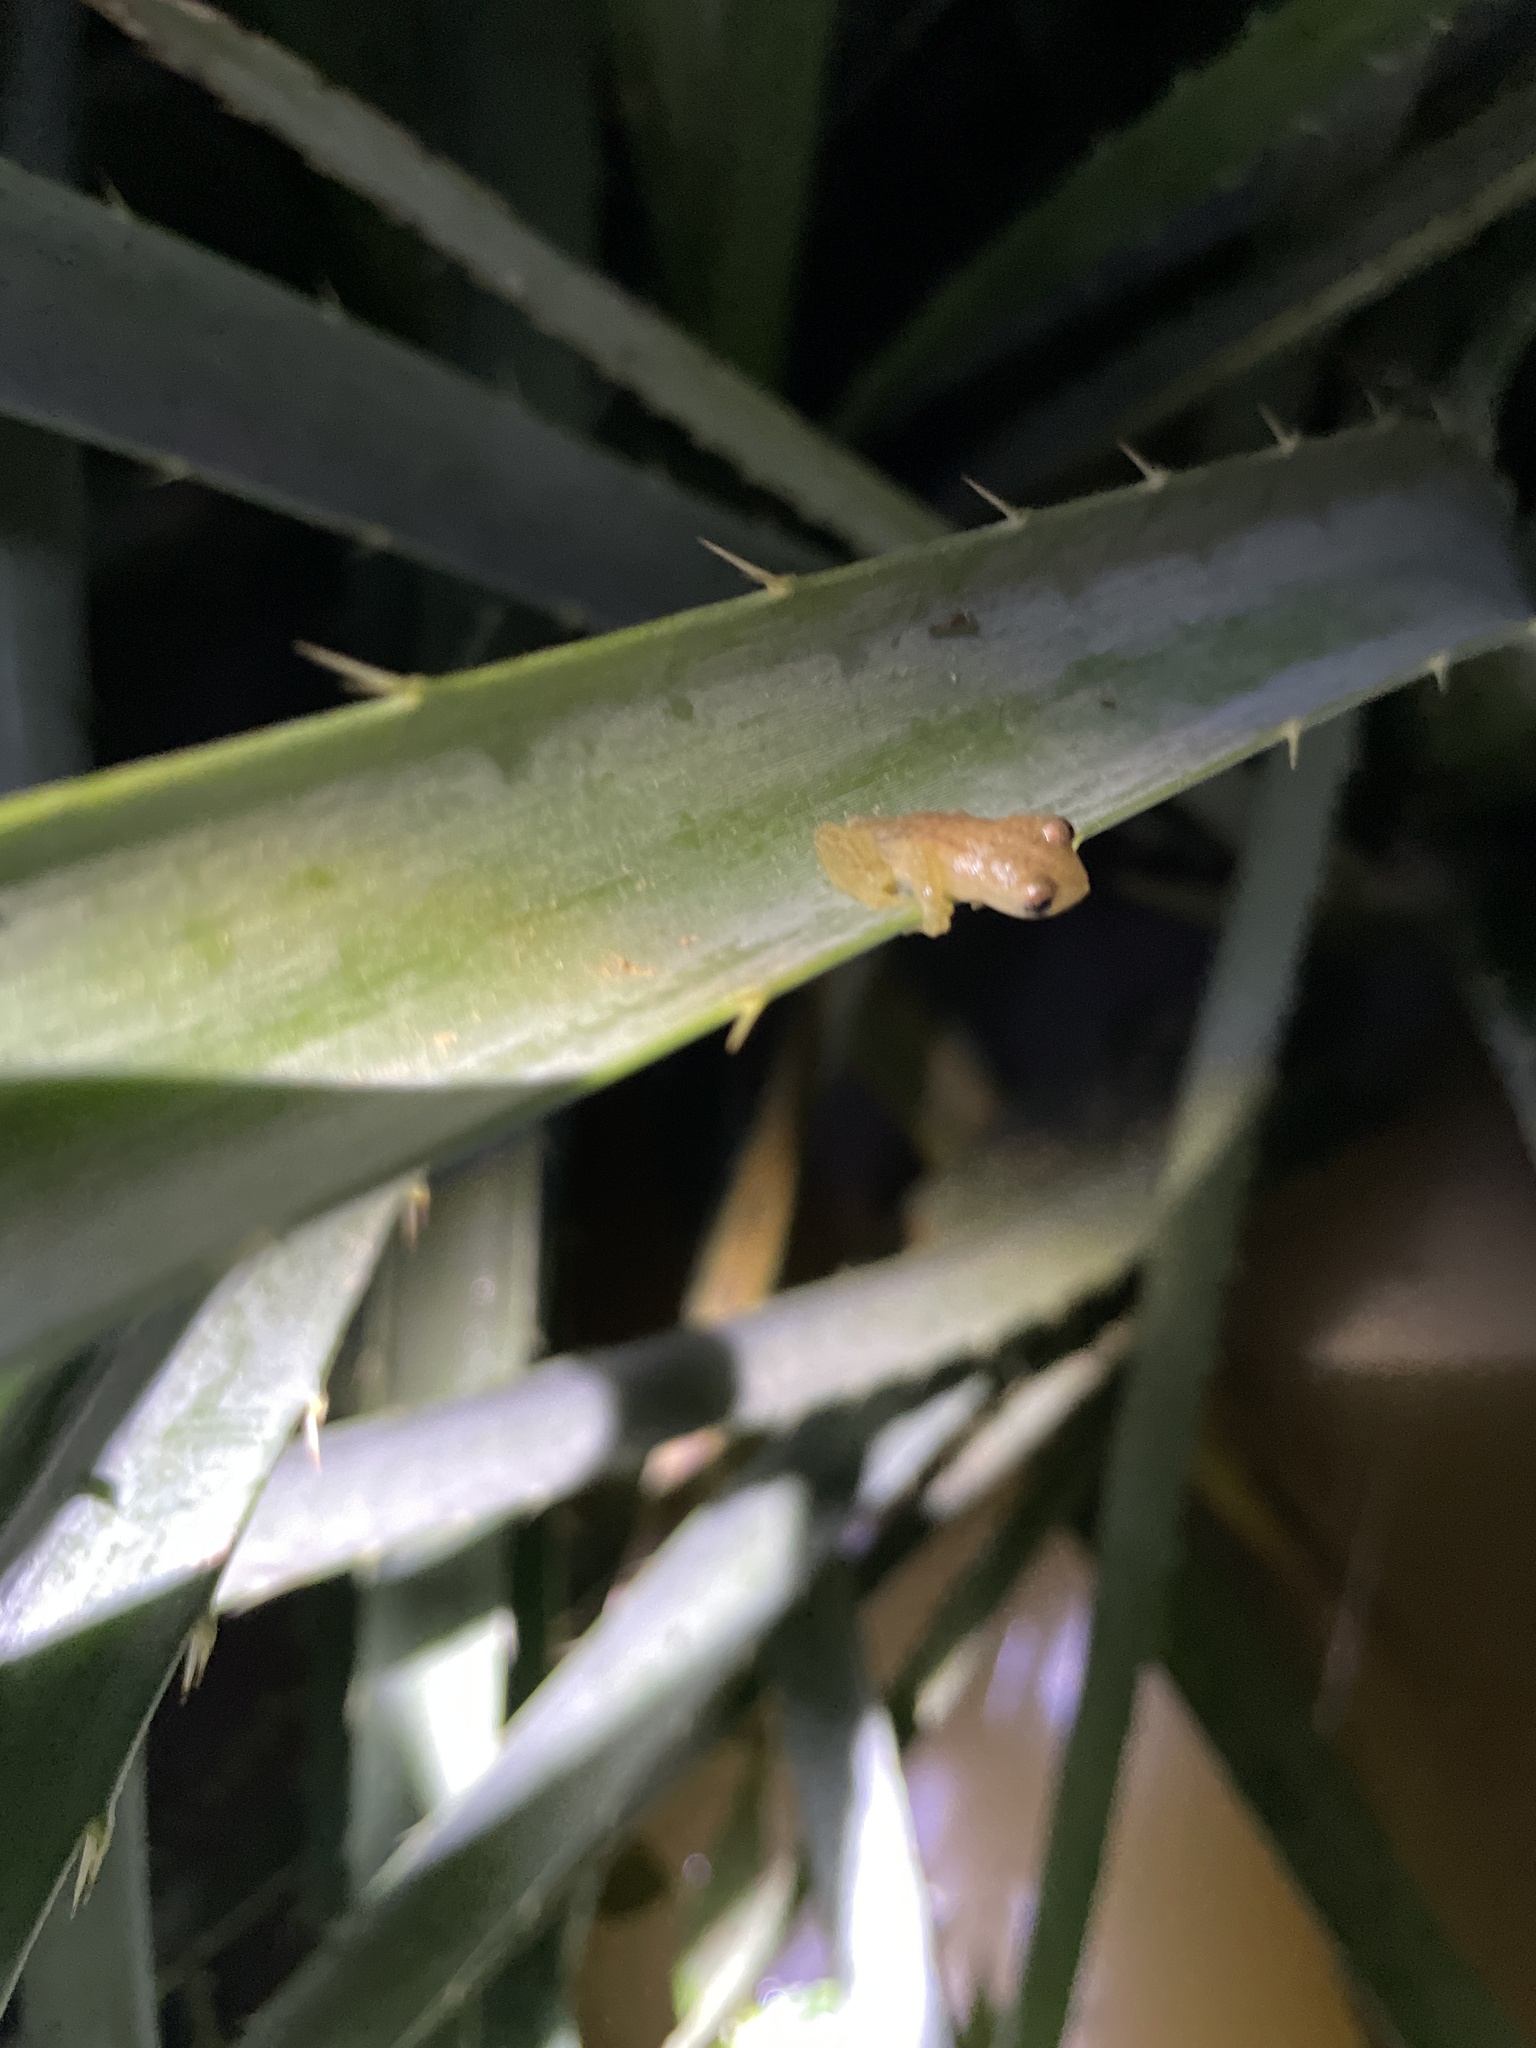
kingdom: Animalia
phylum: Chordata
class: Amphibia
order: Anura
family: Hylidae
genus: Dendropsophus
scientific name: Dendropsophus sanborni
